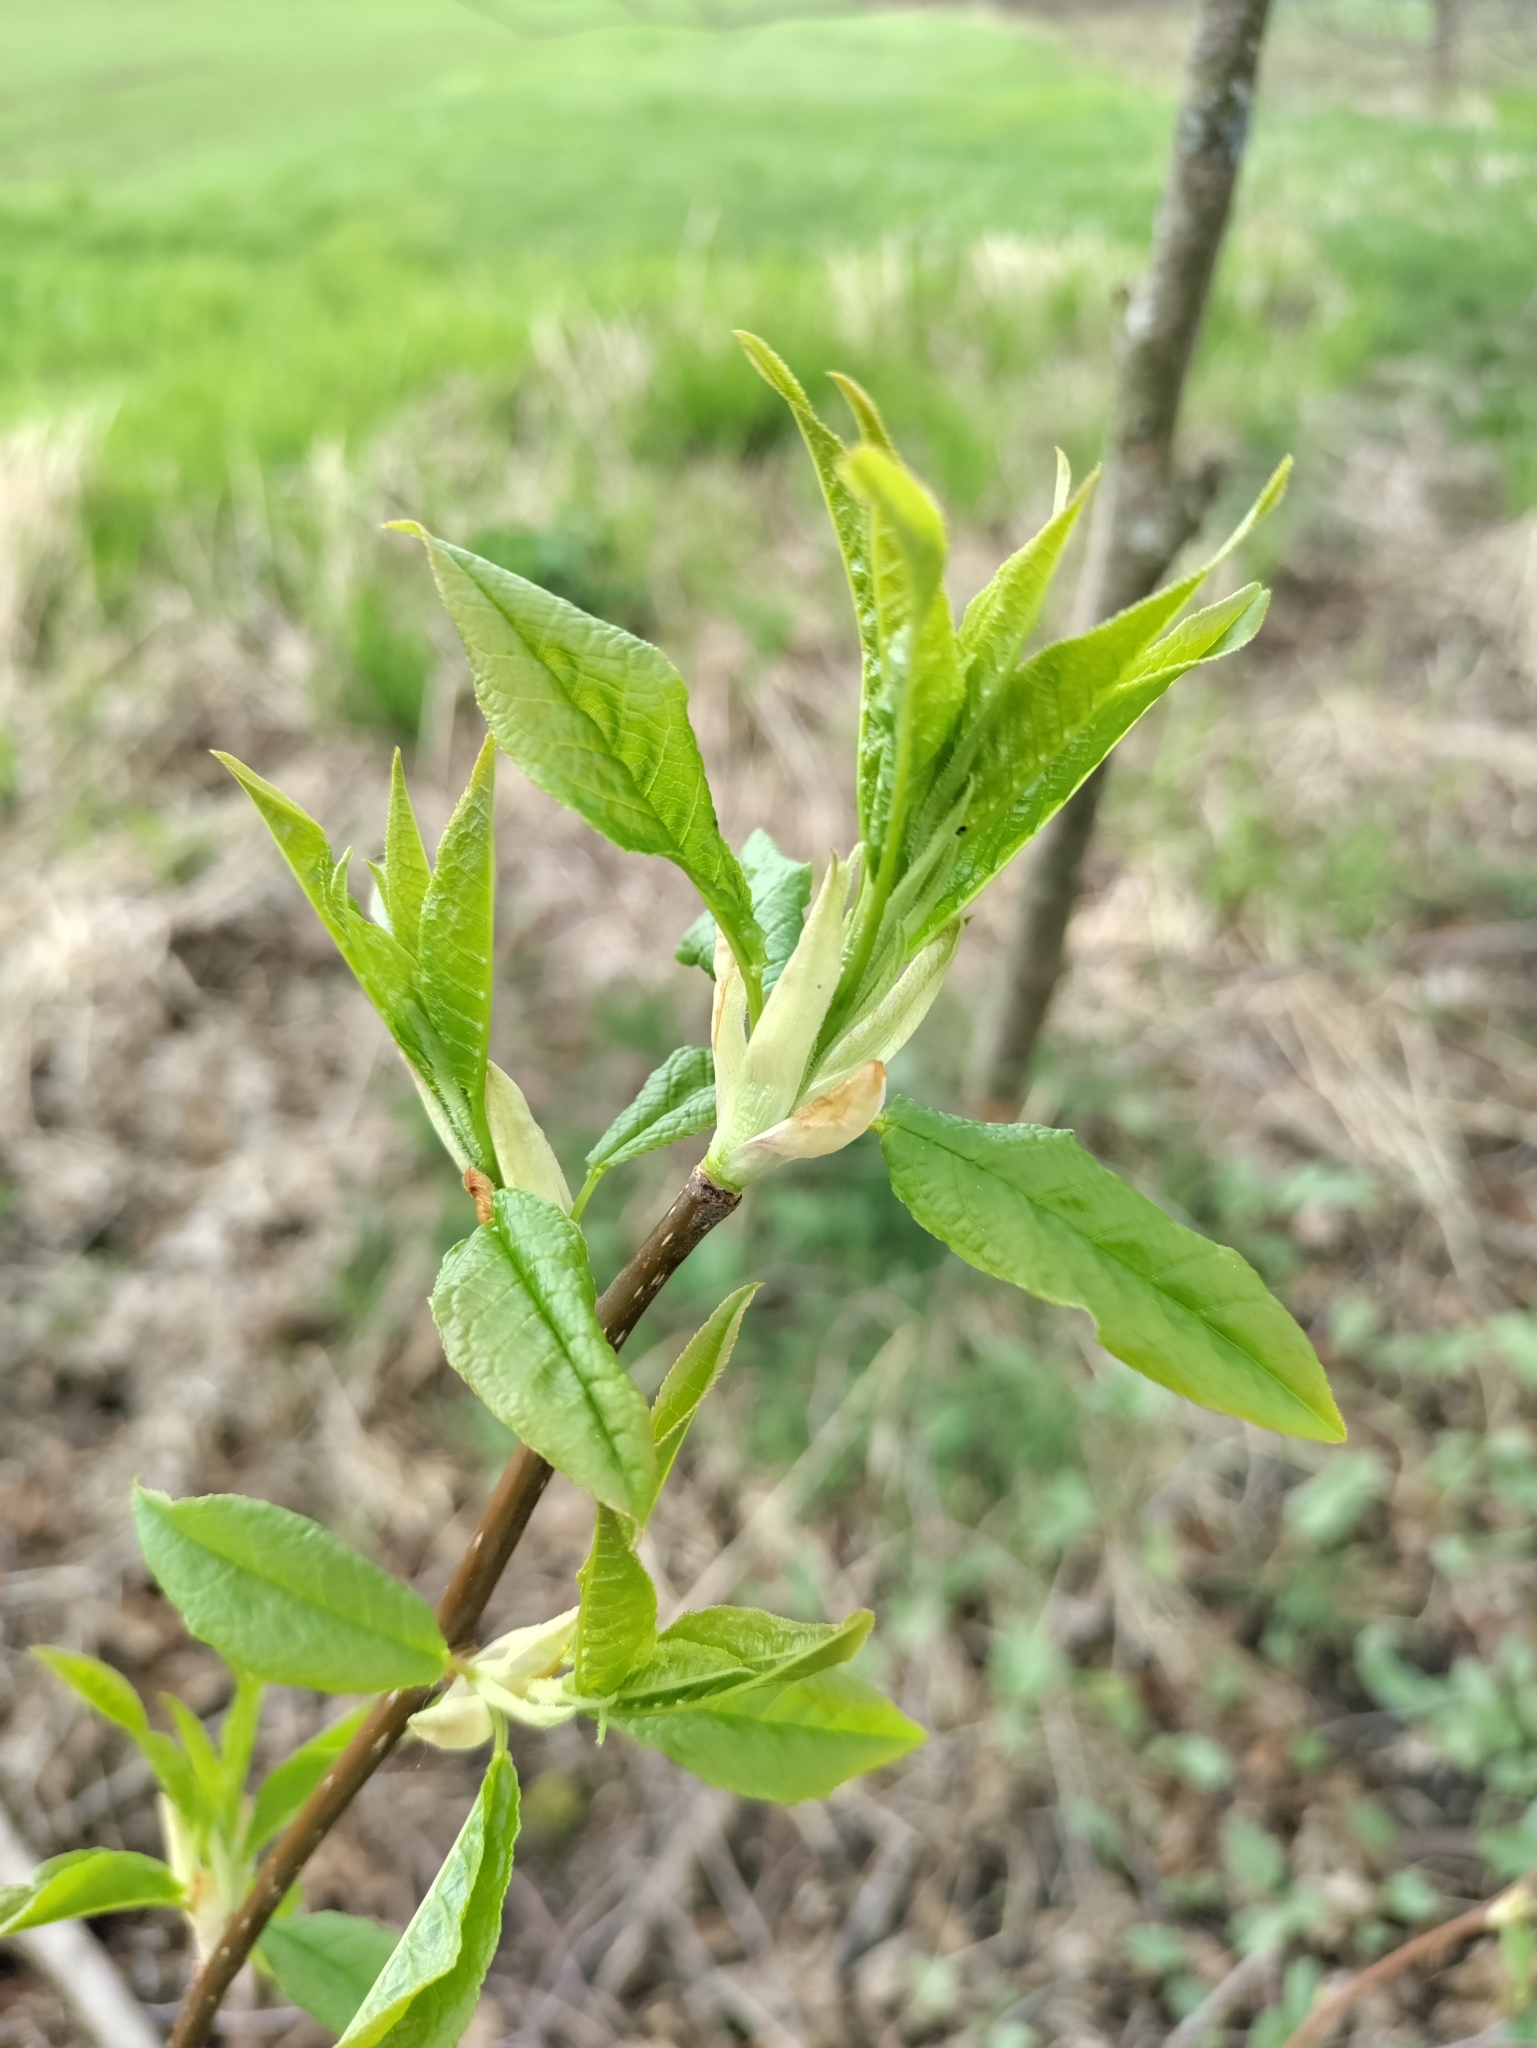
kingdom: Plantae
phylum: Tracheophyta
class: Magnoliopsida
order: Rosales
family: Rosaceae
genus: Prunus
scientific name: Prunus padus
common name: Bird cherry
